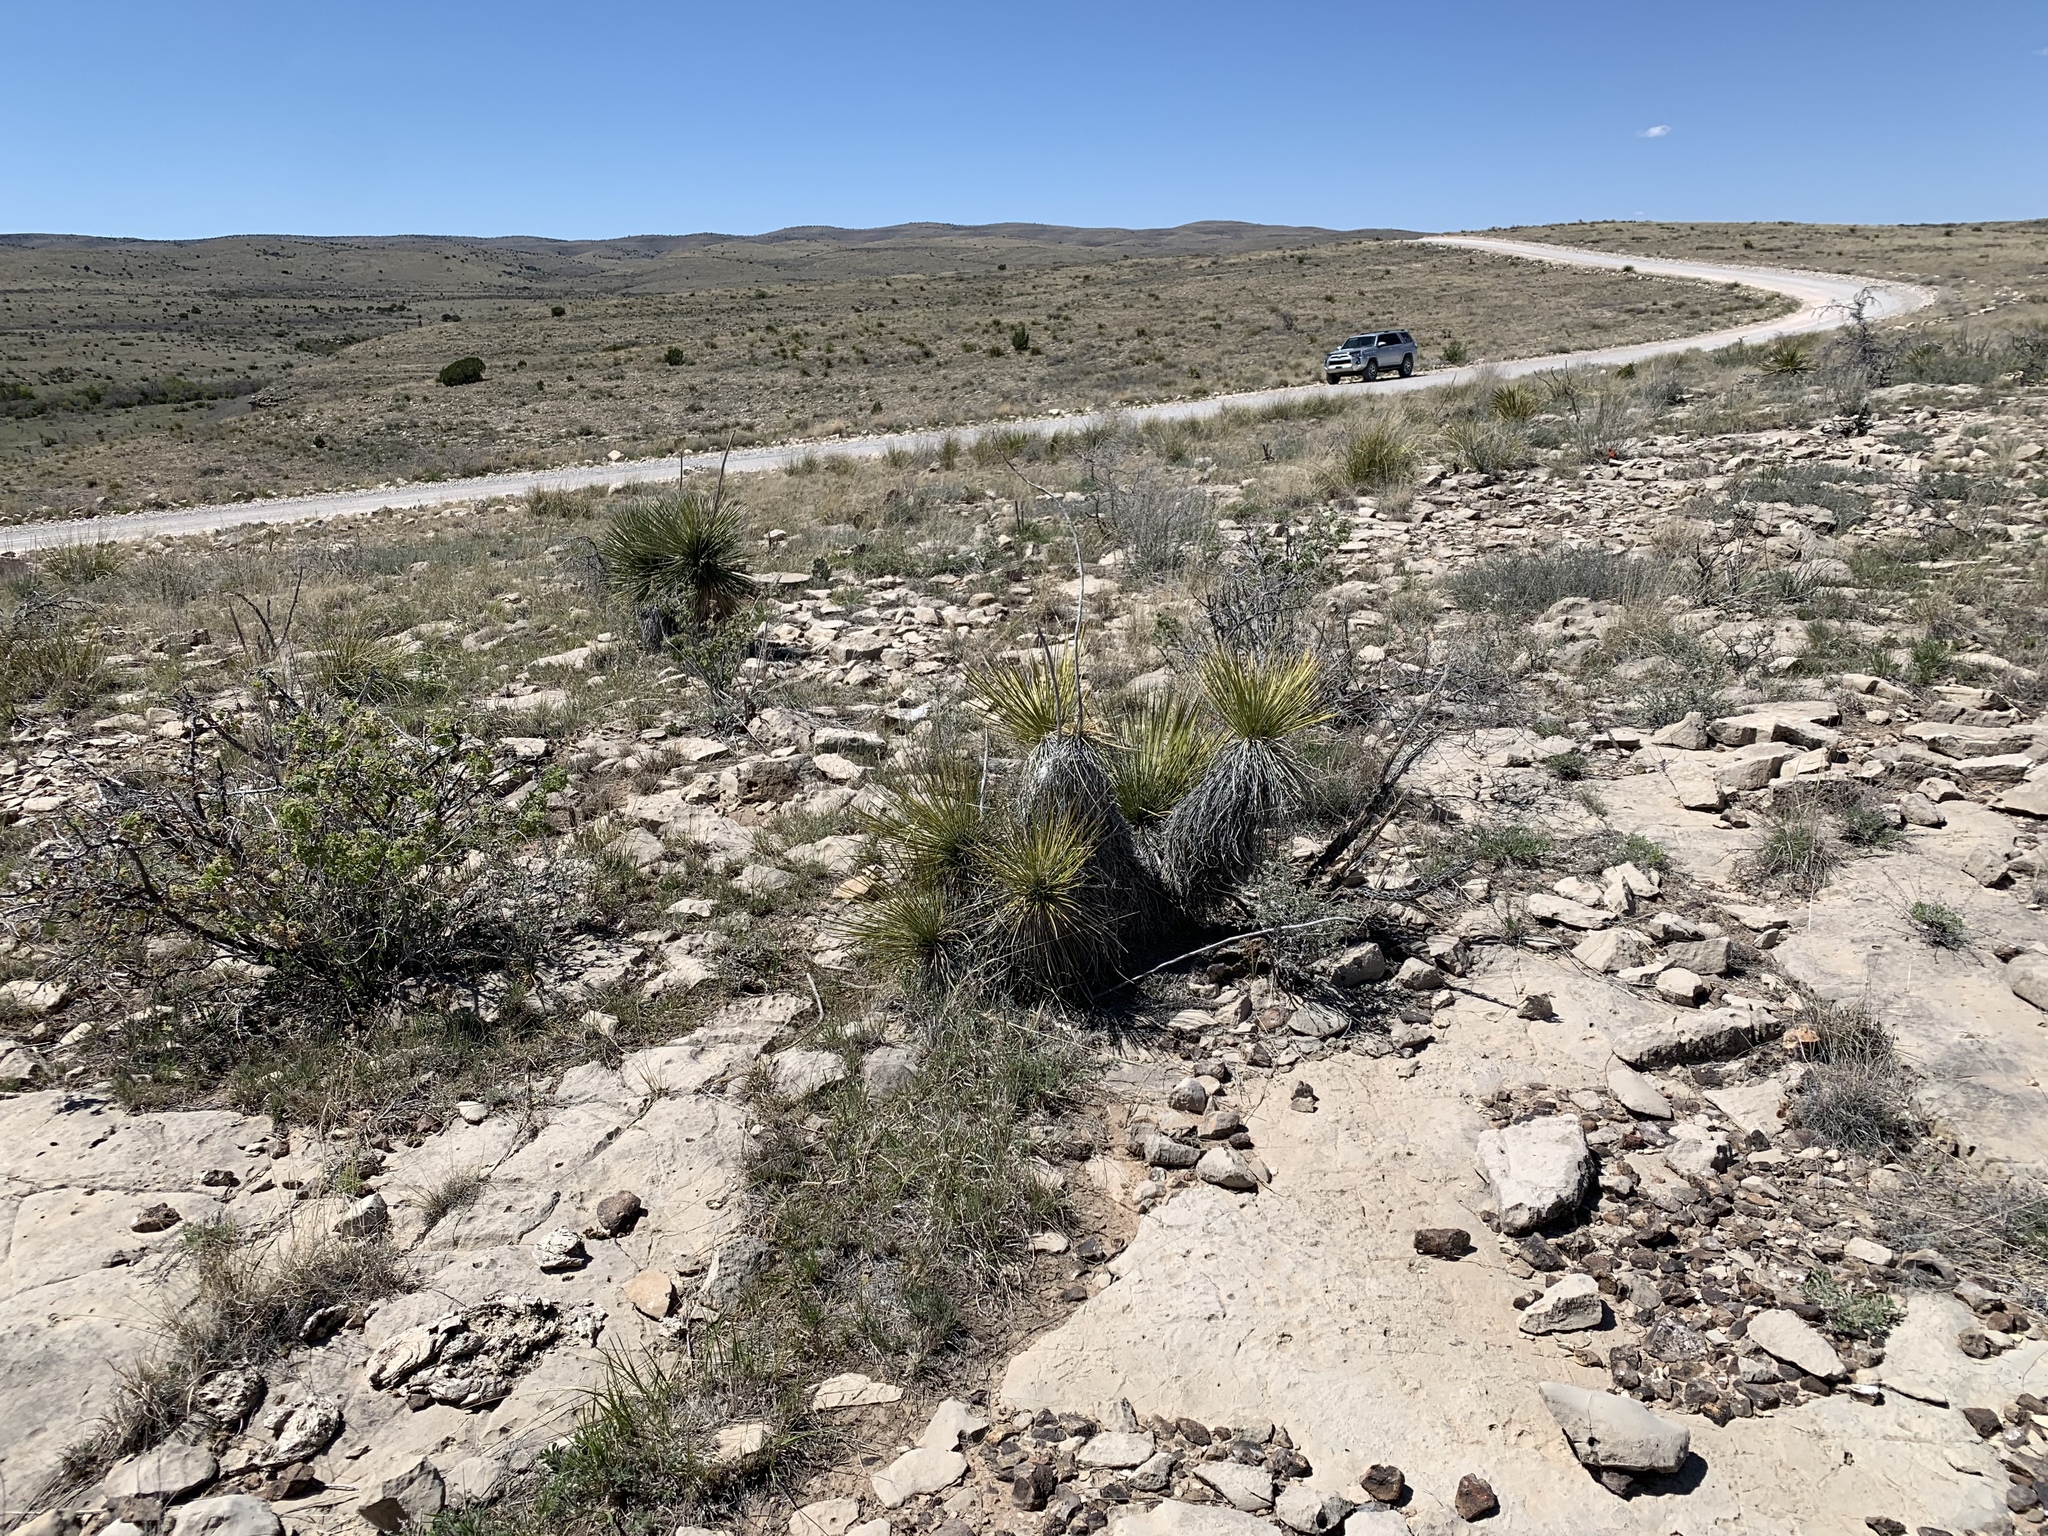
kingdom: Plantae
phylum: Tracheophyta
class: Liliopsida
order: Asparagales
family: Asparagaceae
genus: Yucca
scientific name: Yucca elata
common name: Palmella
